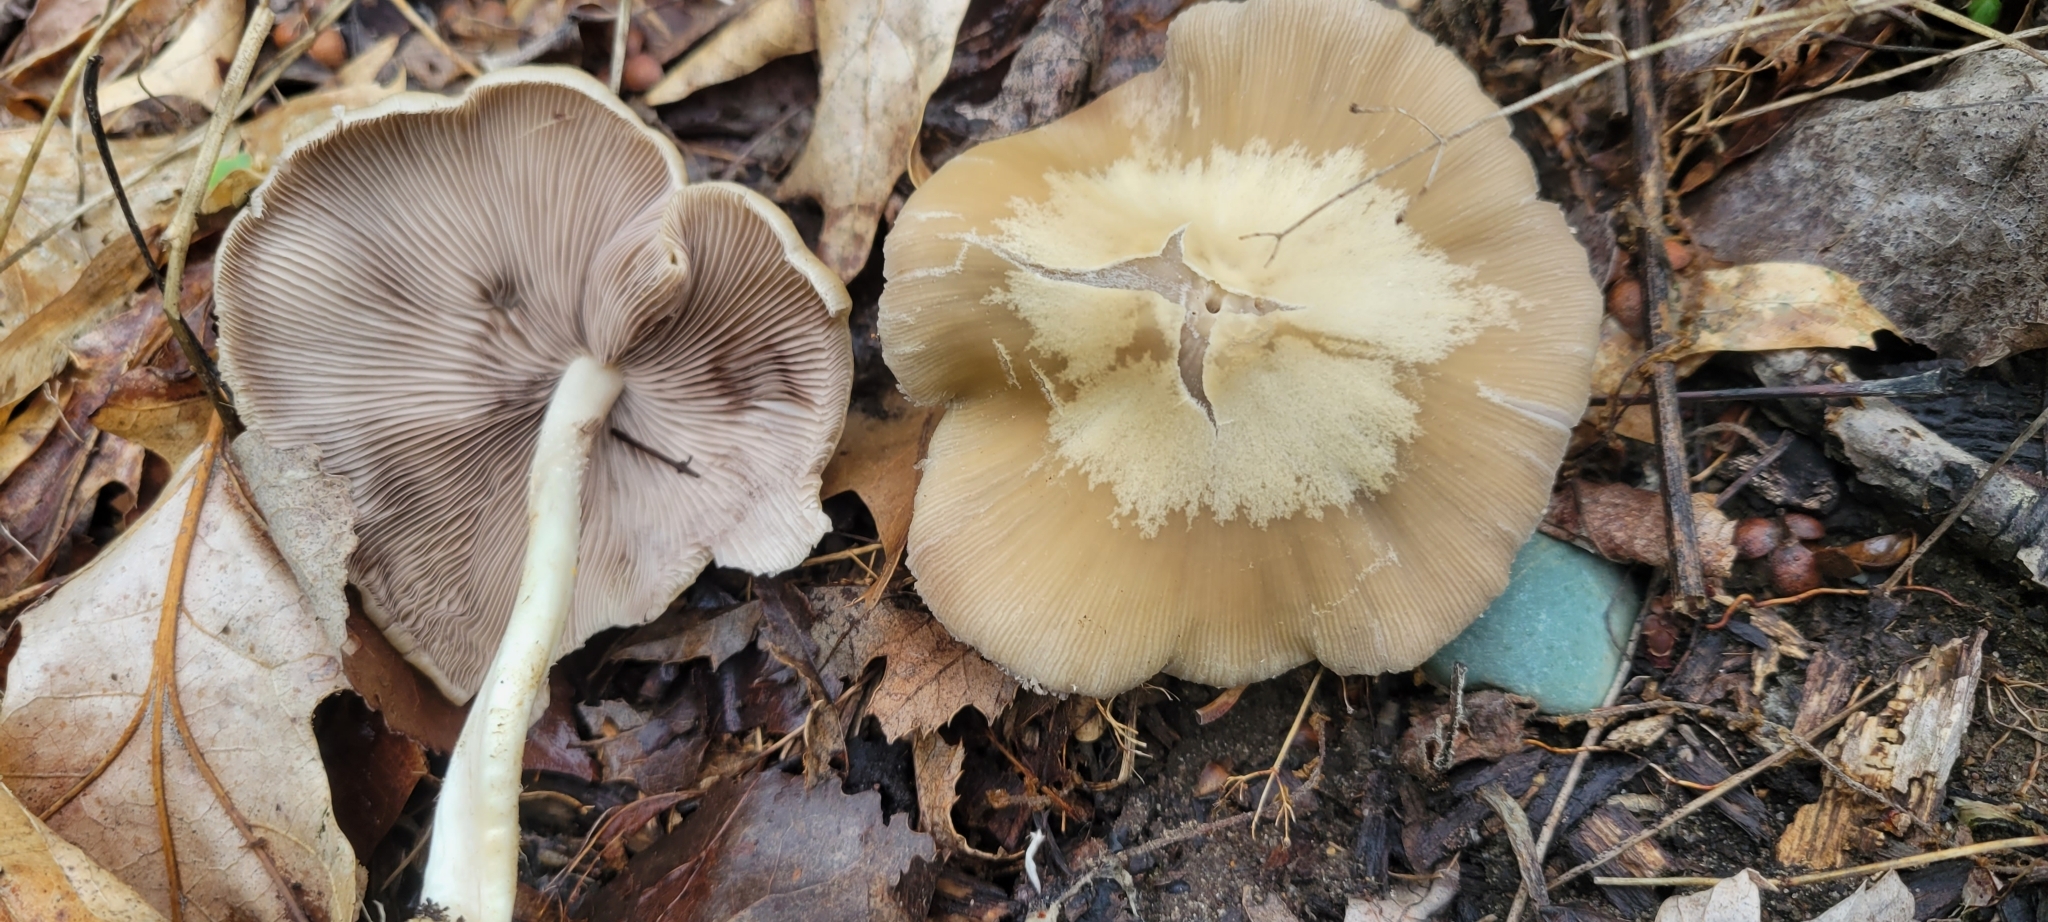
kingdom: Fungi
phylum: Basidiomycota
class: Agaricomycetes
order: Agaricales
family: Psathyrellaceae
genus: Candolleomyces
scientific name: Candolleomyces candolleanus
